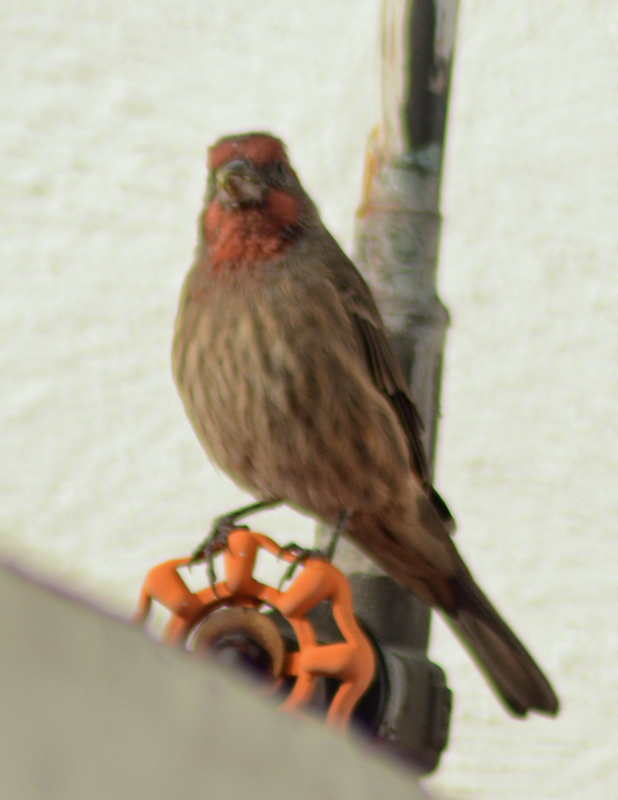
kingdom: Animalia
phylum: Chordata
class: Aves
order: Passeriformes
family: Fringillidae
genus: Haemorhous
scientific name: Haemorhous mexicanus
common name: House finch
